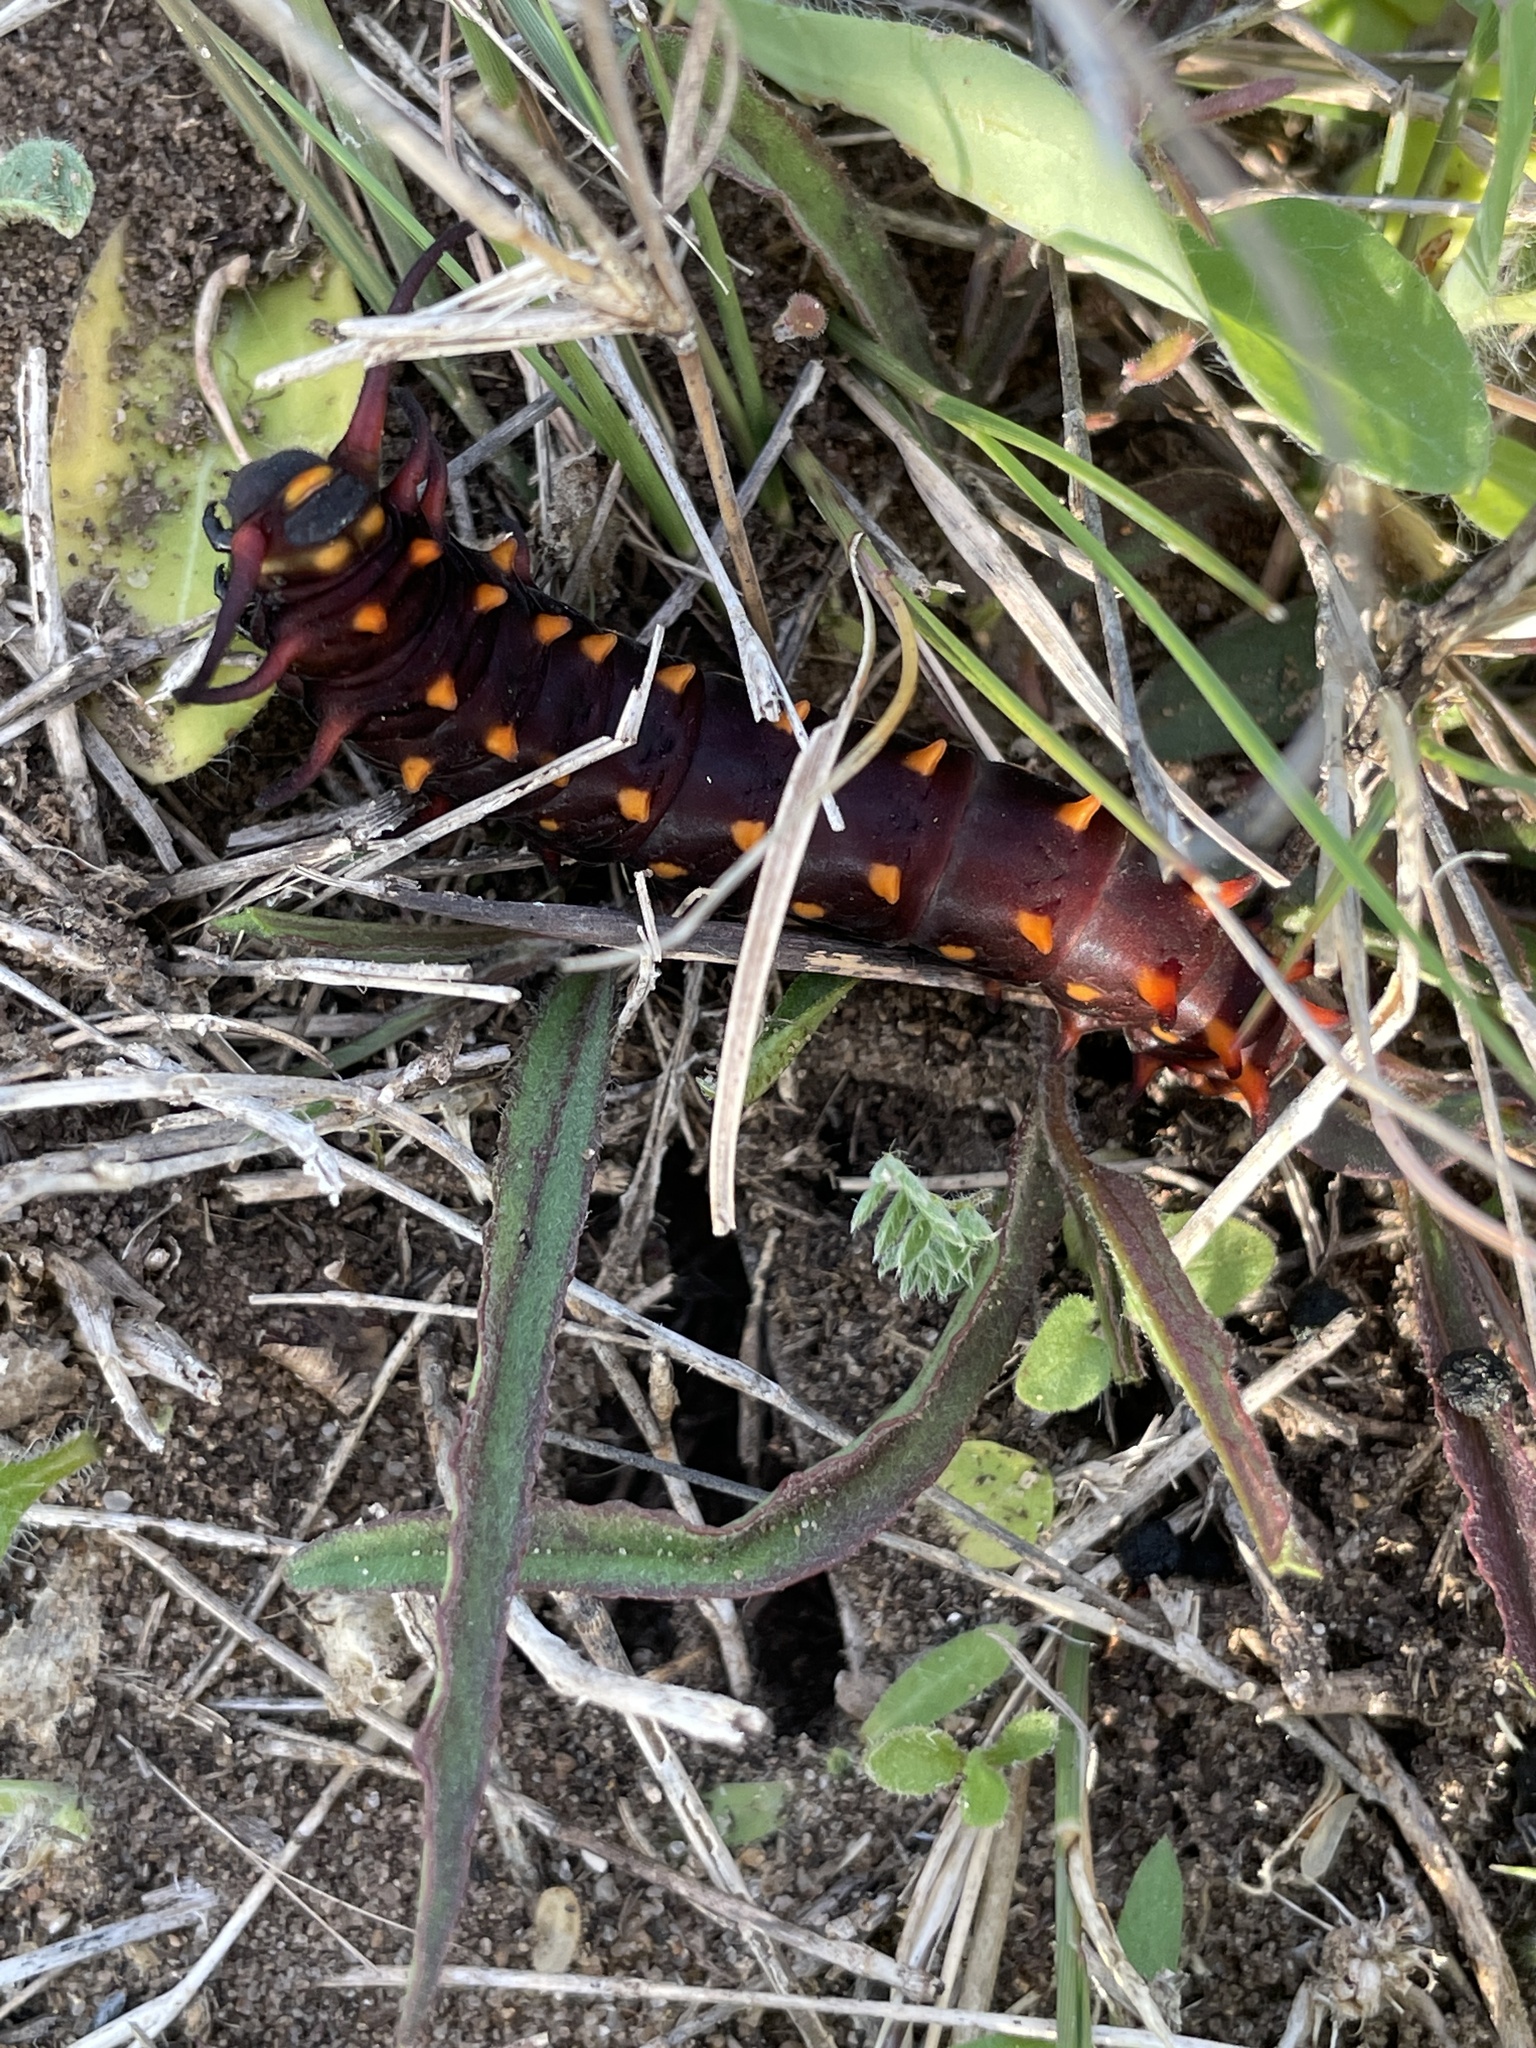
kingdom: Animalia
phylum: Arthropoda
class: Insecta
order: Lepidoptera
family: Papilionidae
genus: Battus
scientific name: Battus philenor
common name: Pipevine swallowtail
